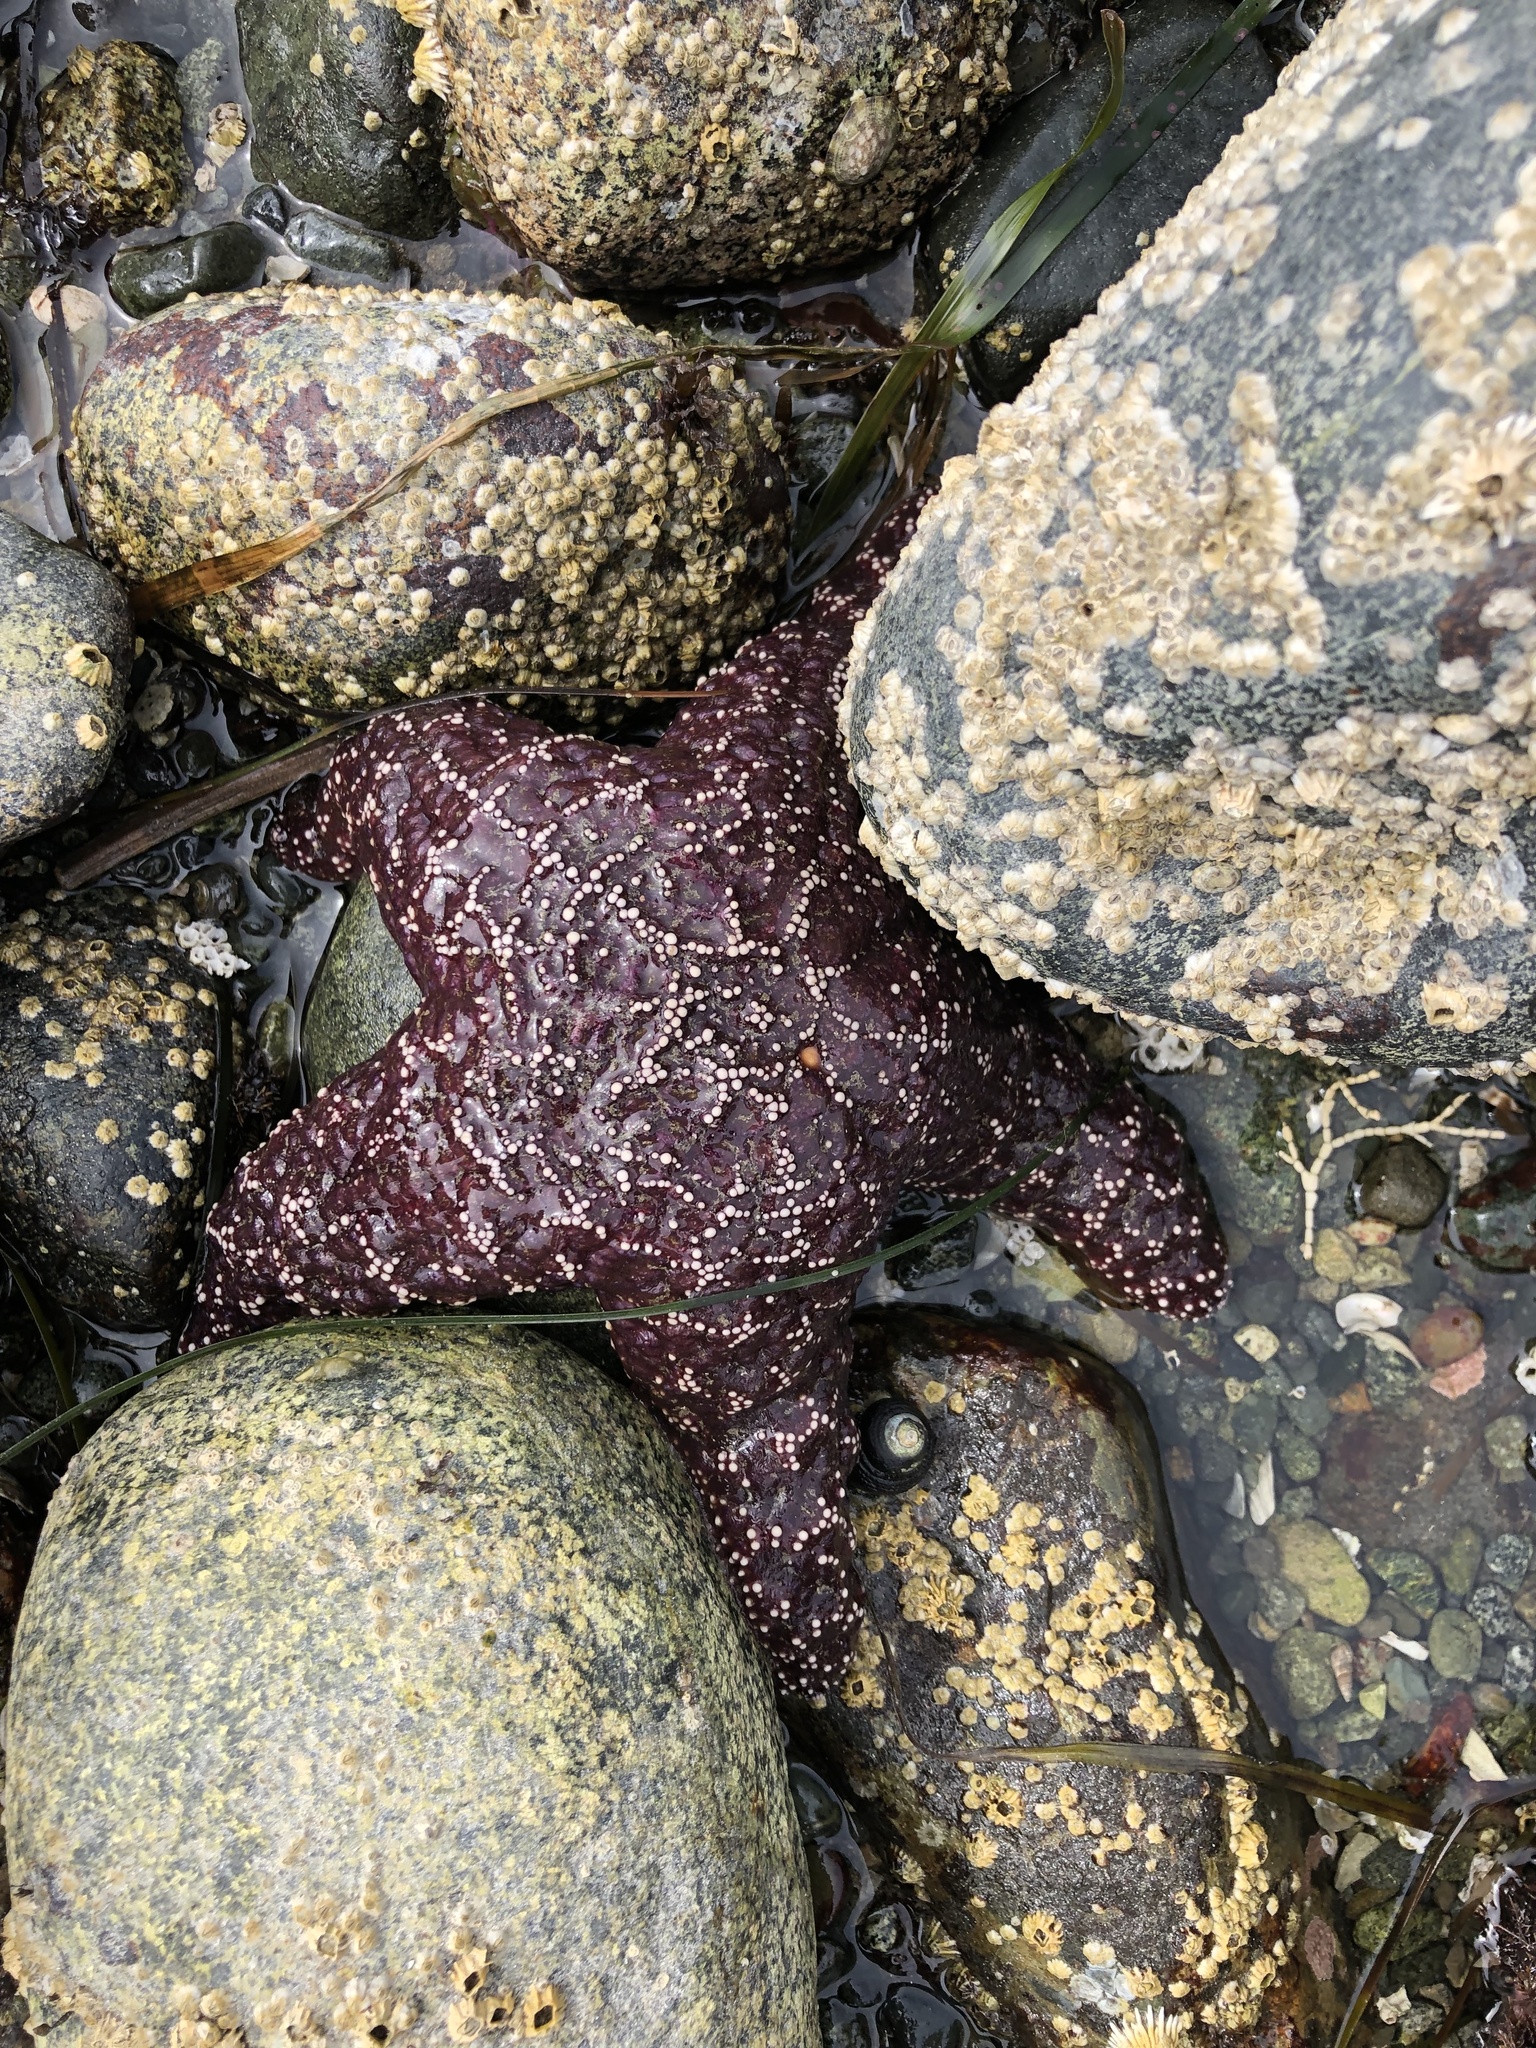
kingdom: Animalia
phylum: Echinodermata
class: Asteroidea
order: Forcipulatida
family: Asteriidae
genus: Pisaster
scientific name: Pisaster ochraceus
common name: Ochre stars
